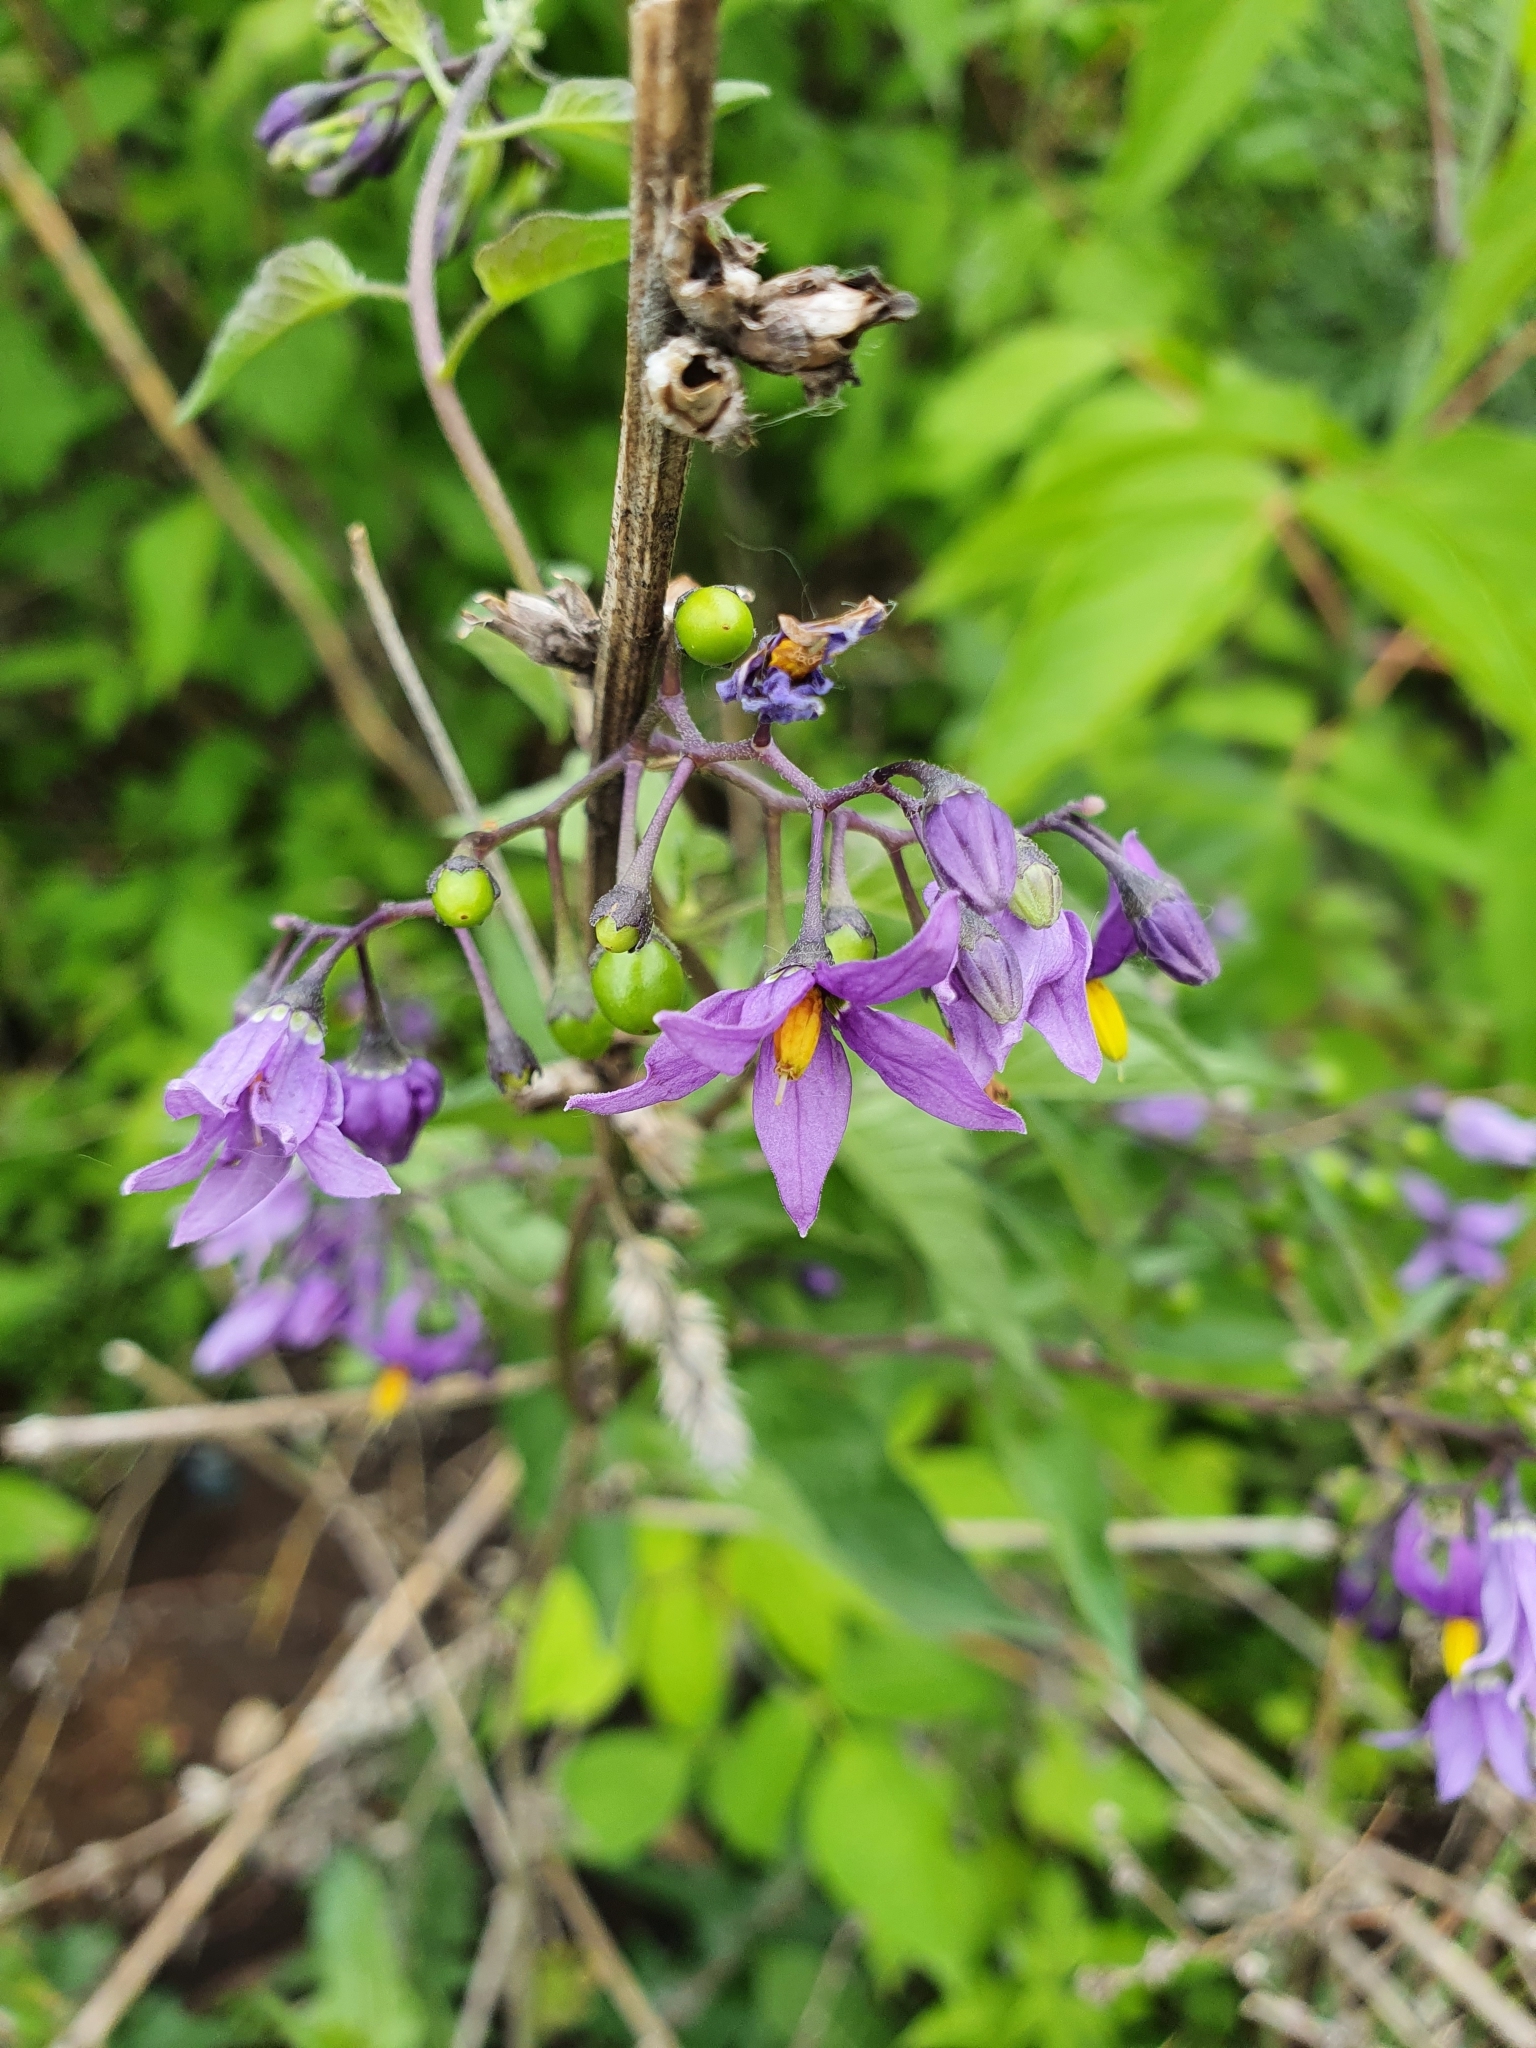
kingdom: Plantae
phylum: Tracheophyta
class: Magnoliopsida
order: Solanales
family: Solanaceae
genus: Solanum
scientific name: Solanum dulcamara
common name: Climbing nightshade
